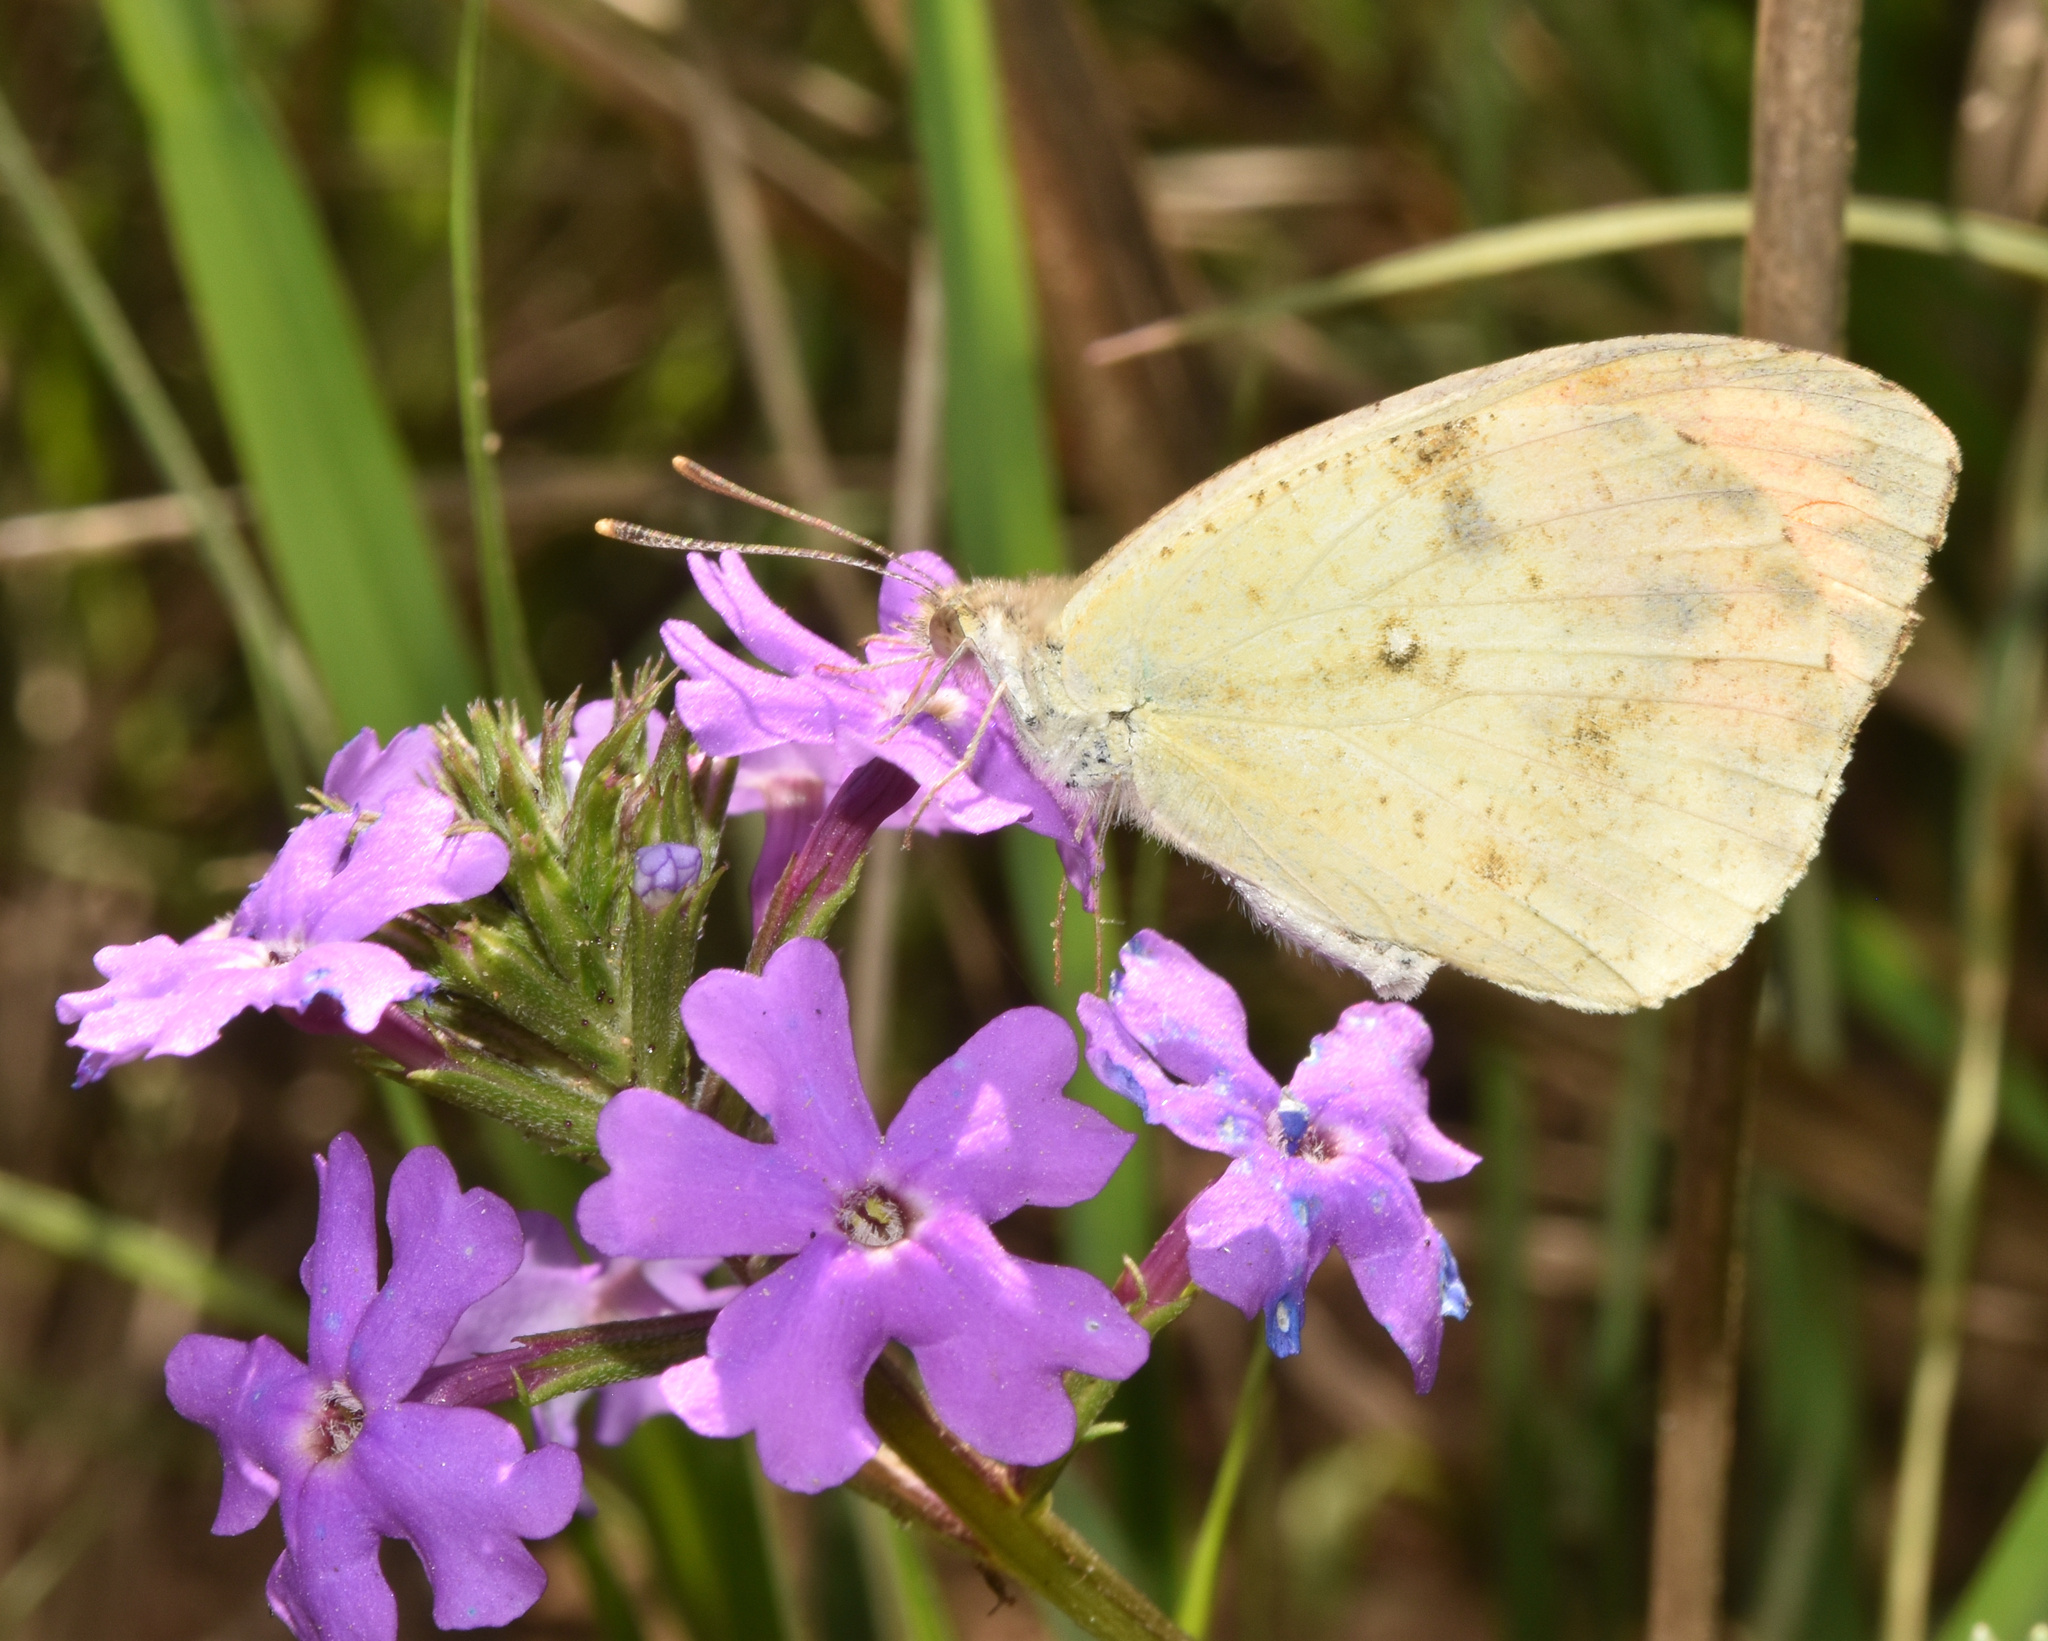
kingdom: Animalia
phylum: Arthropoda
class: Insecta
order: Lepidoptera
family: Pieridae
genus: Colotis
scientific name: Colotis auxo
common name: Sulphur orange tip
